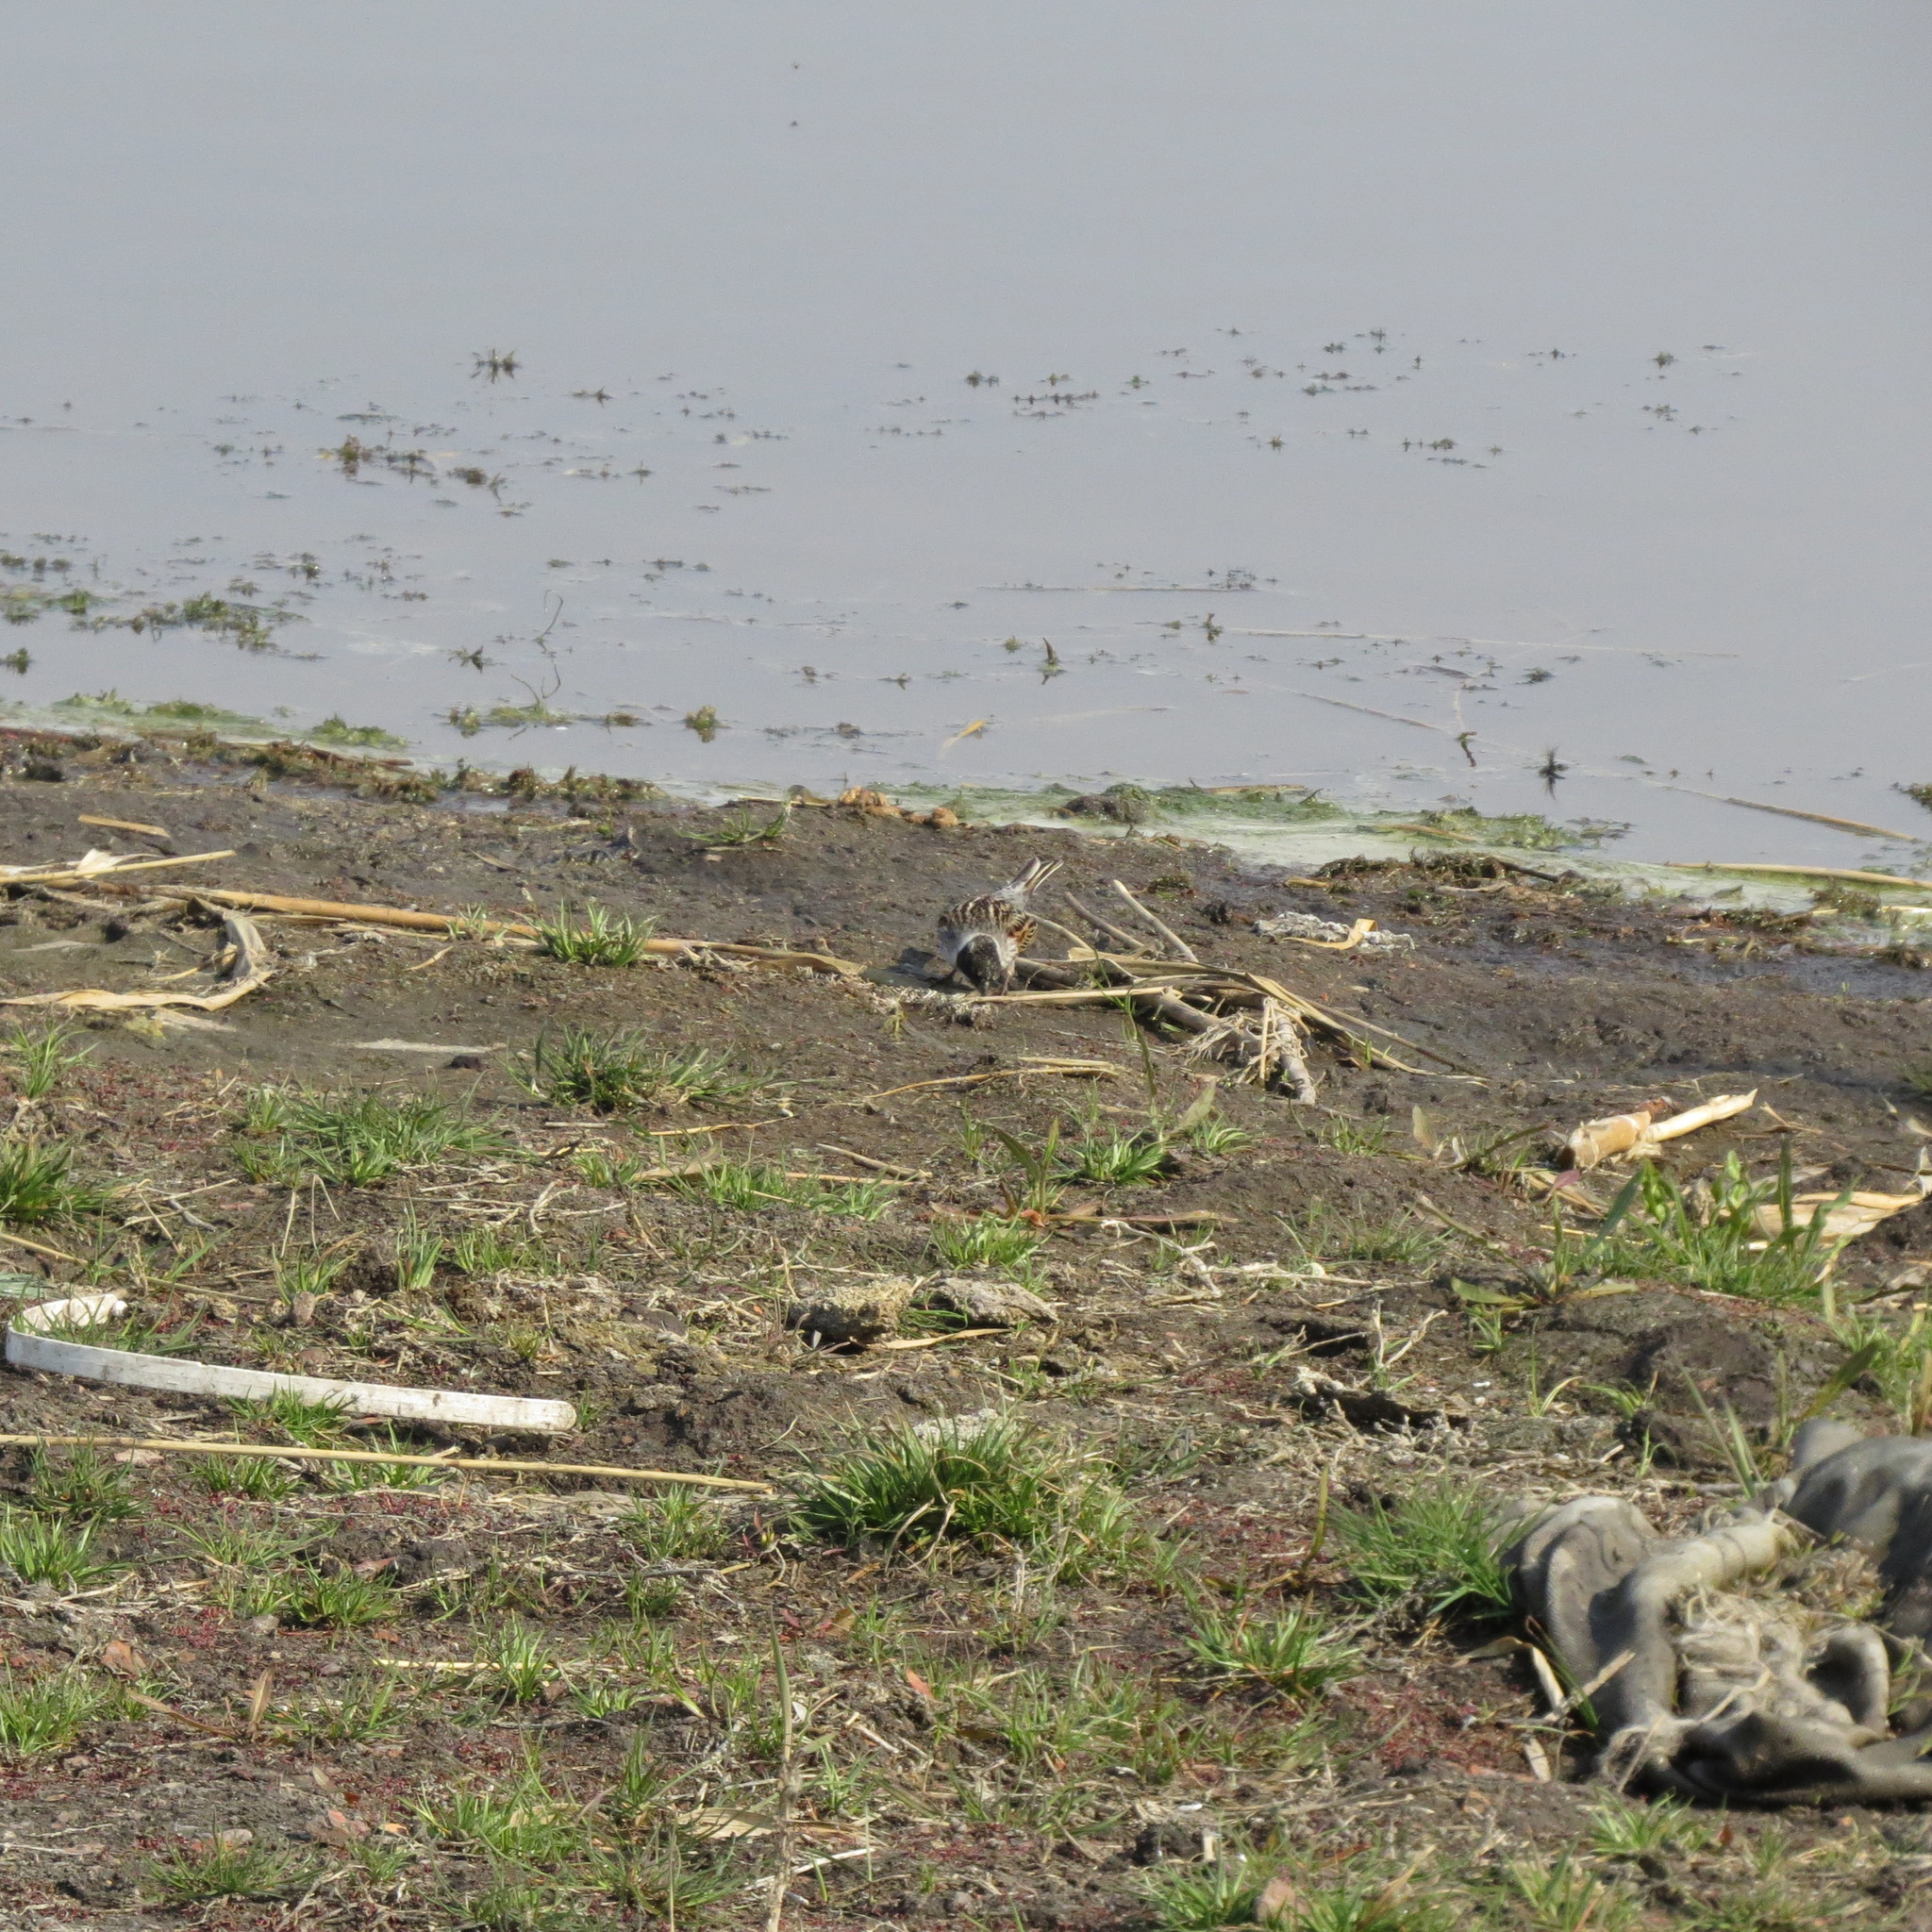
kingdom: Animalia
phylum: Chordata
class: Aves
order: Passeriformes
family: Emberizidae
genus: Emberiza
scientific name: Emberiza schoeniclus
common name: Reed bunting
